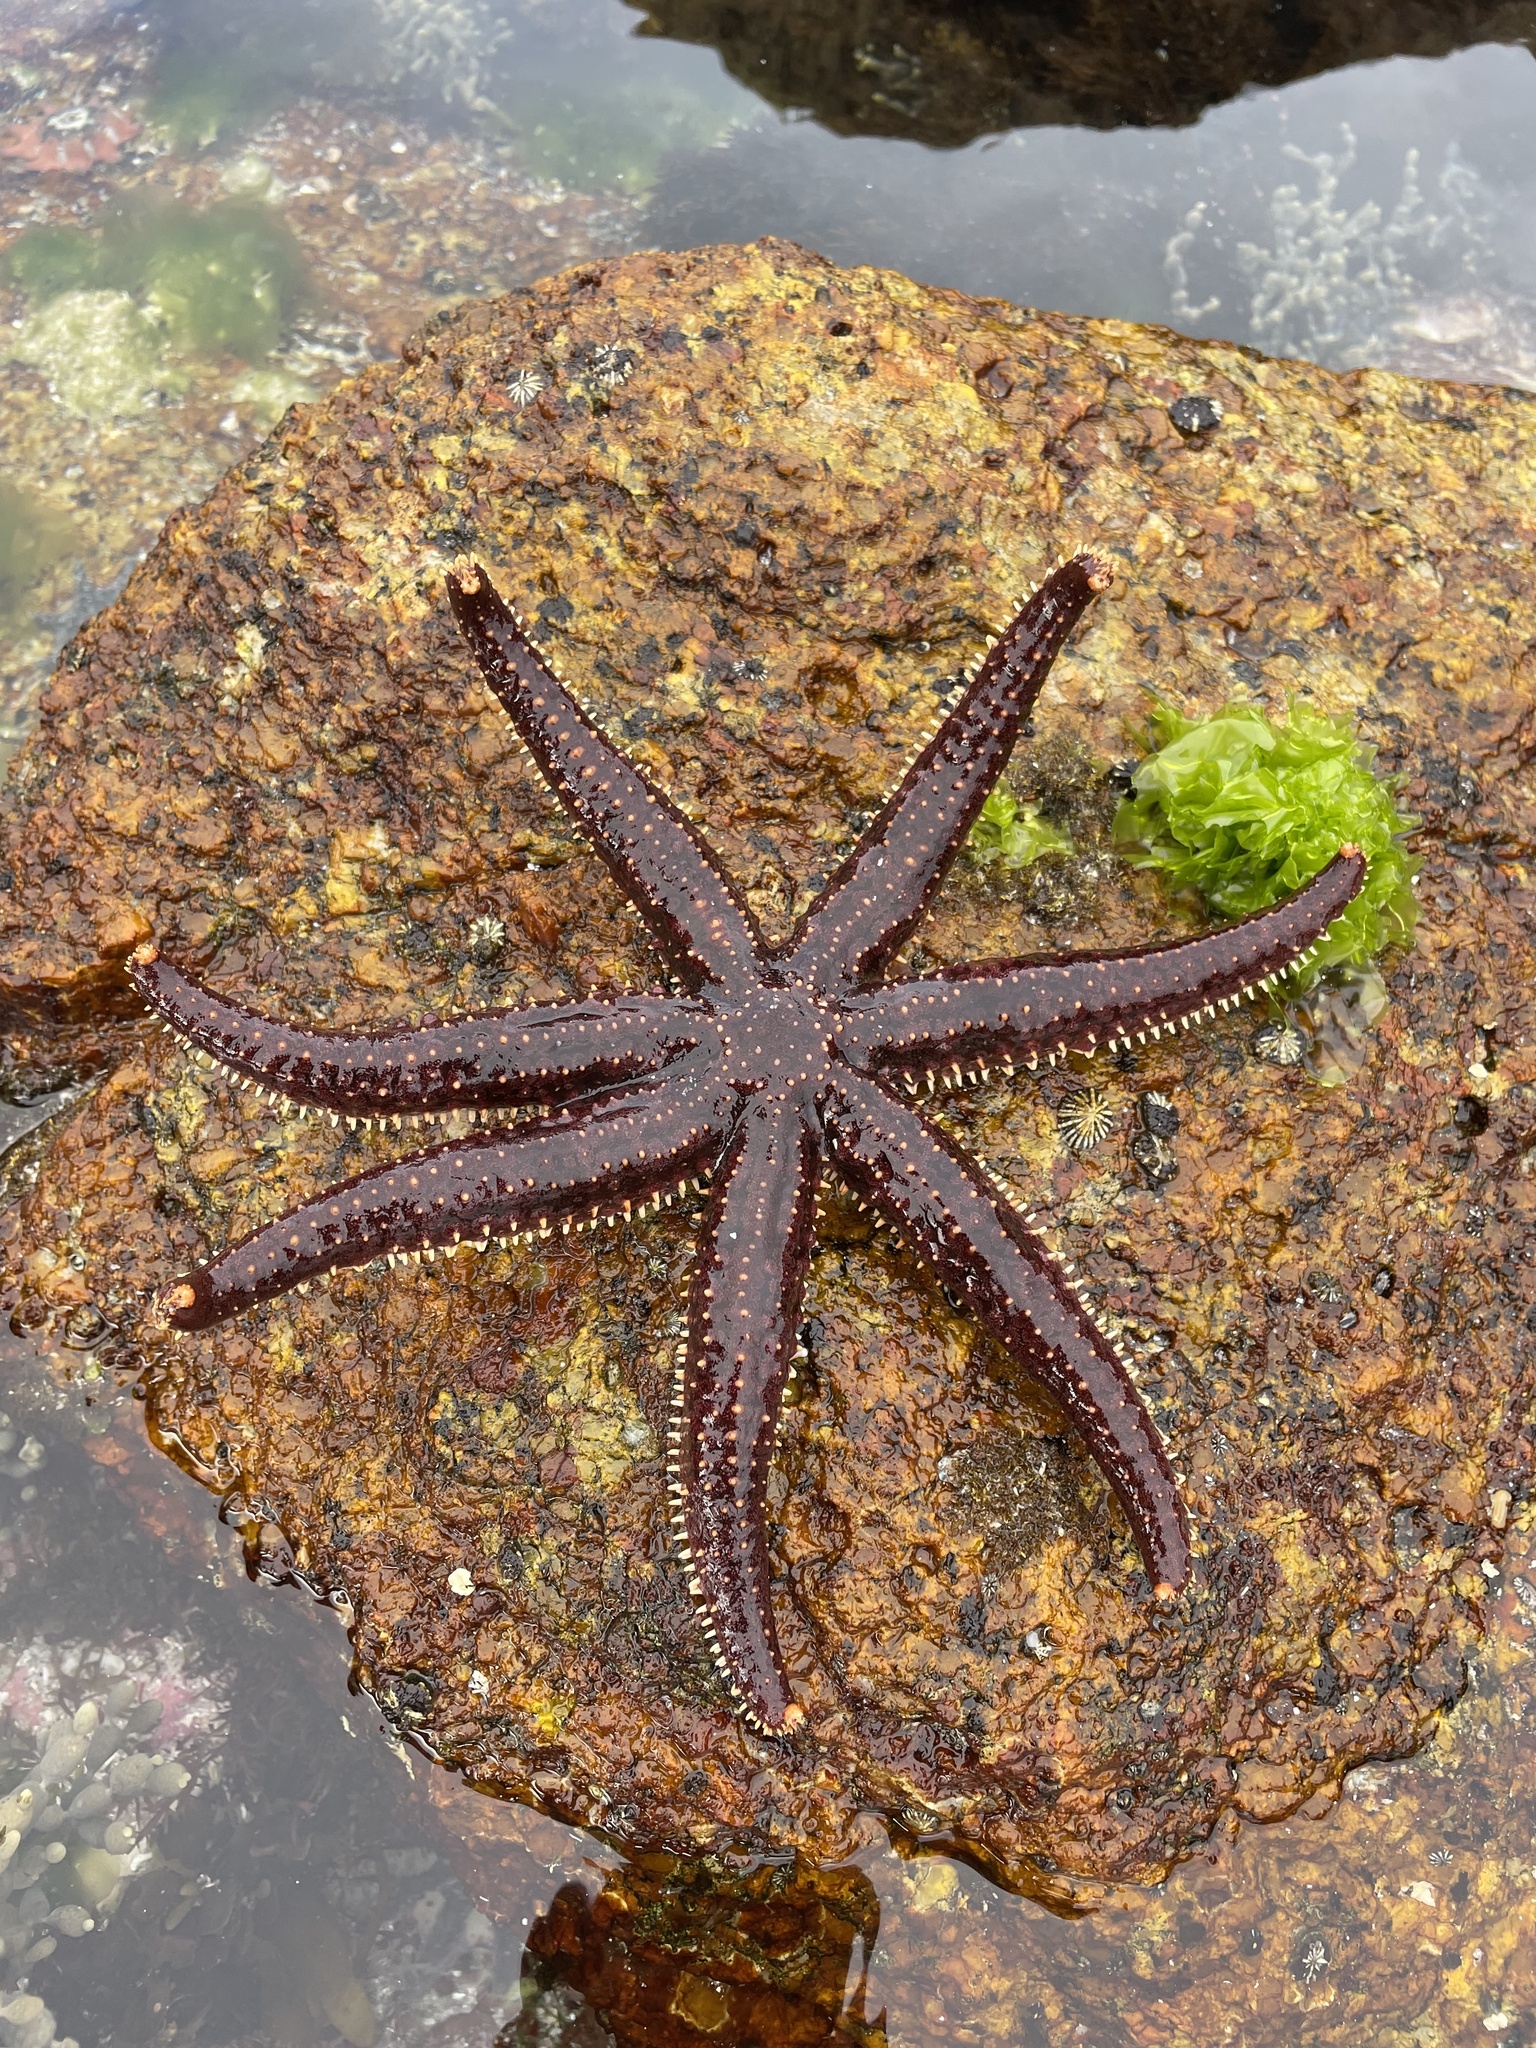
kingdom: Animalia
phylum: Echinodermata
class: Asteroidea
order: Forcipulatida
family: Asteriidae
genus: Astrostole
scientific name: Astrostole scabra
